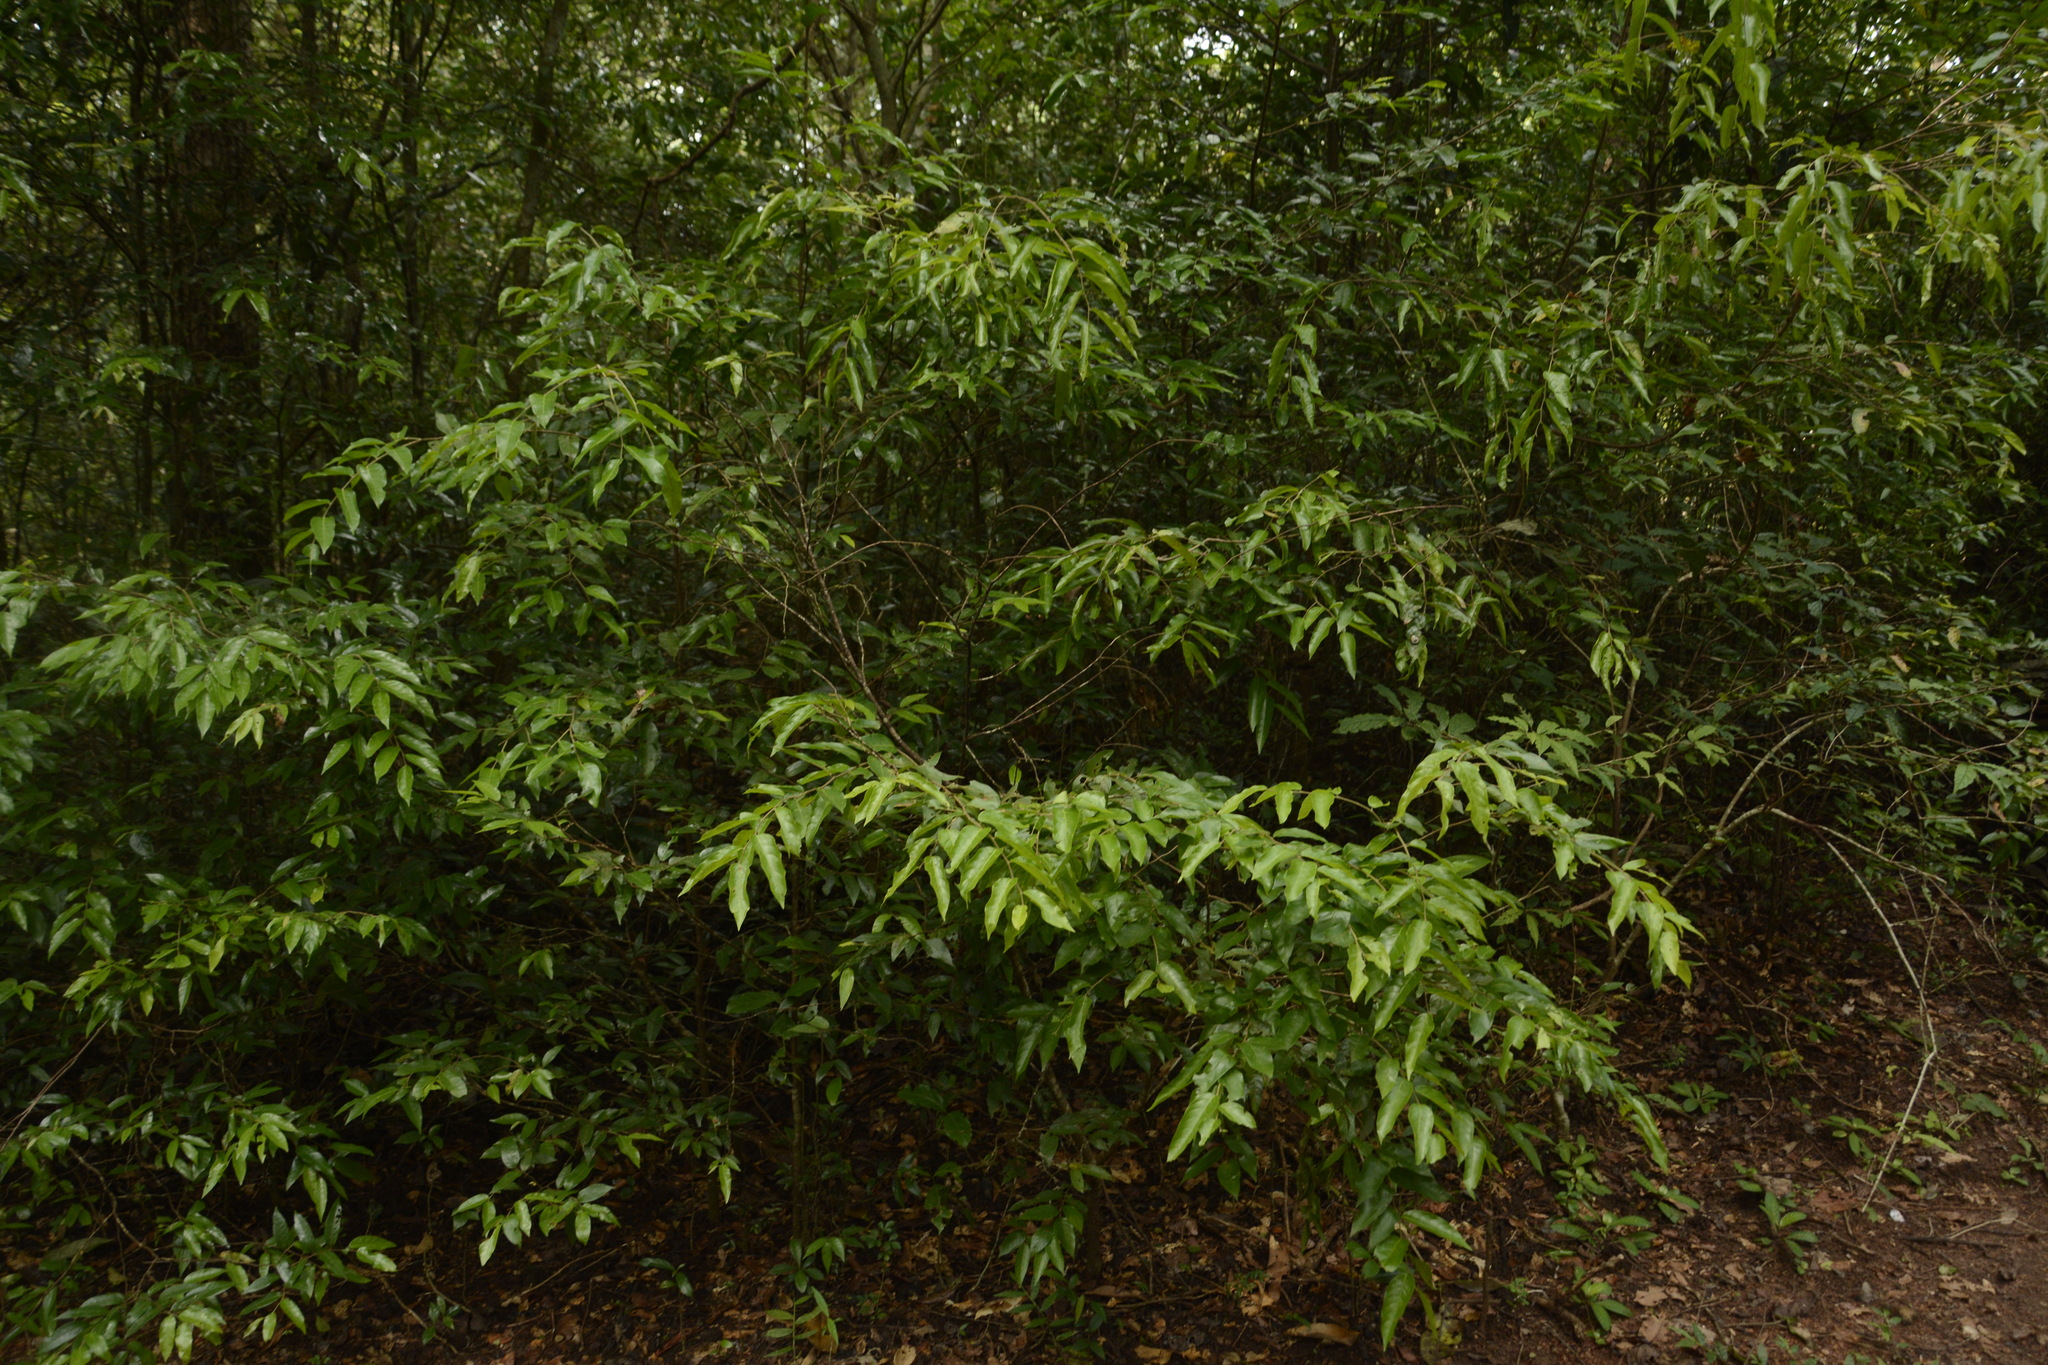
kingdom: Plantae
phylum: Tracheophyta
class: Magnoliopsida
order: Malvales
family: Dipterocarpaceae
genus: Hopea
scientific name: Hopea parviflora
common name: Malabar ironwood
